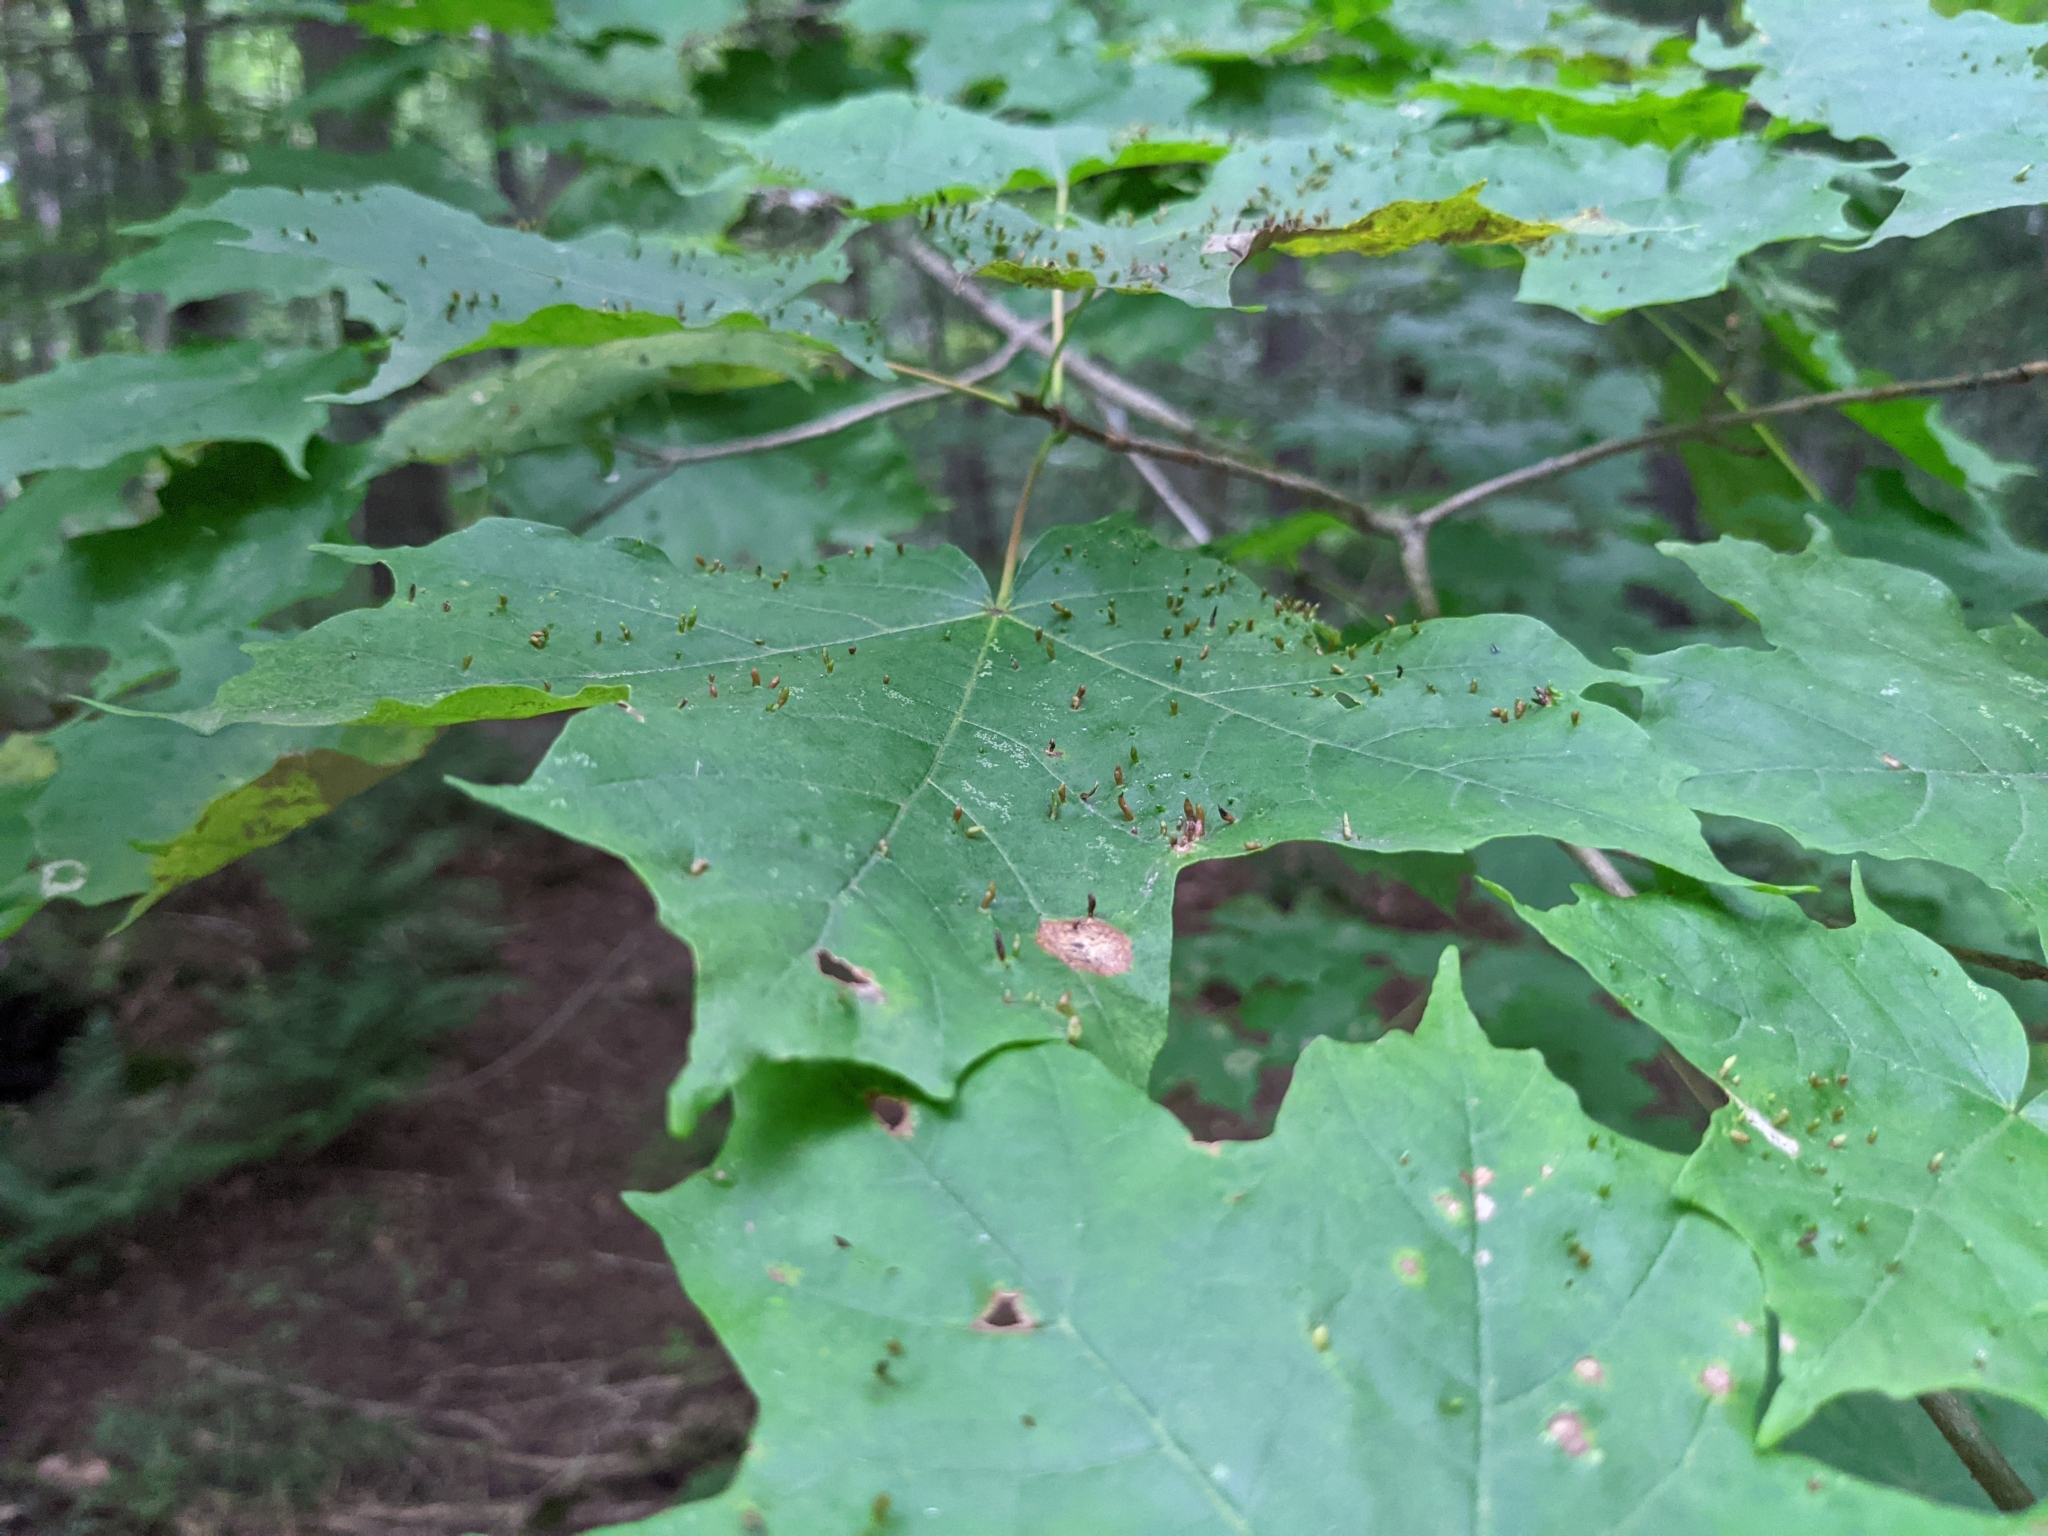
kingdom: Animalia
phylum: Arthropoda
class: Arachnida
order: Trombidiformes
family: Eriophyidae
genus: Vasates
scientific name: Vasates aceriscrumena
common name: Maple spindle gall mite
